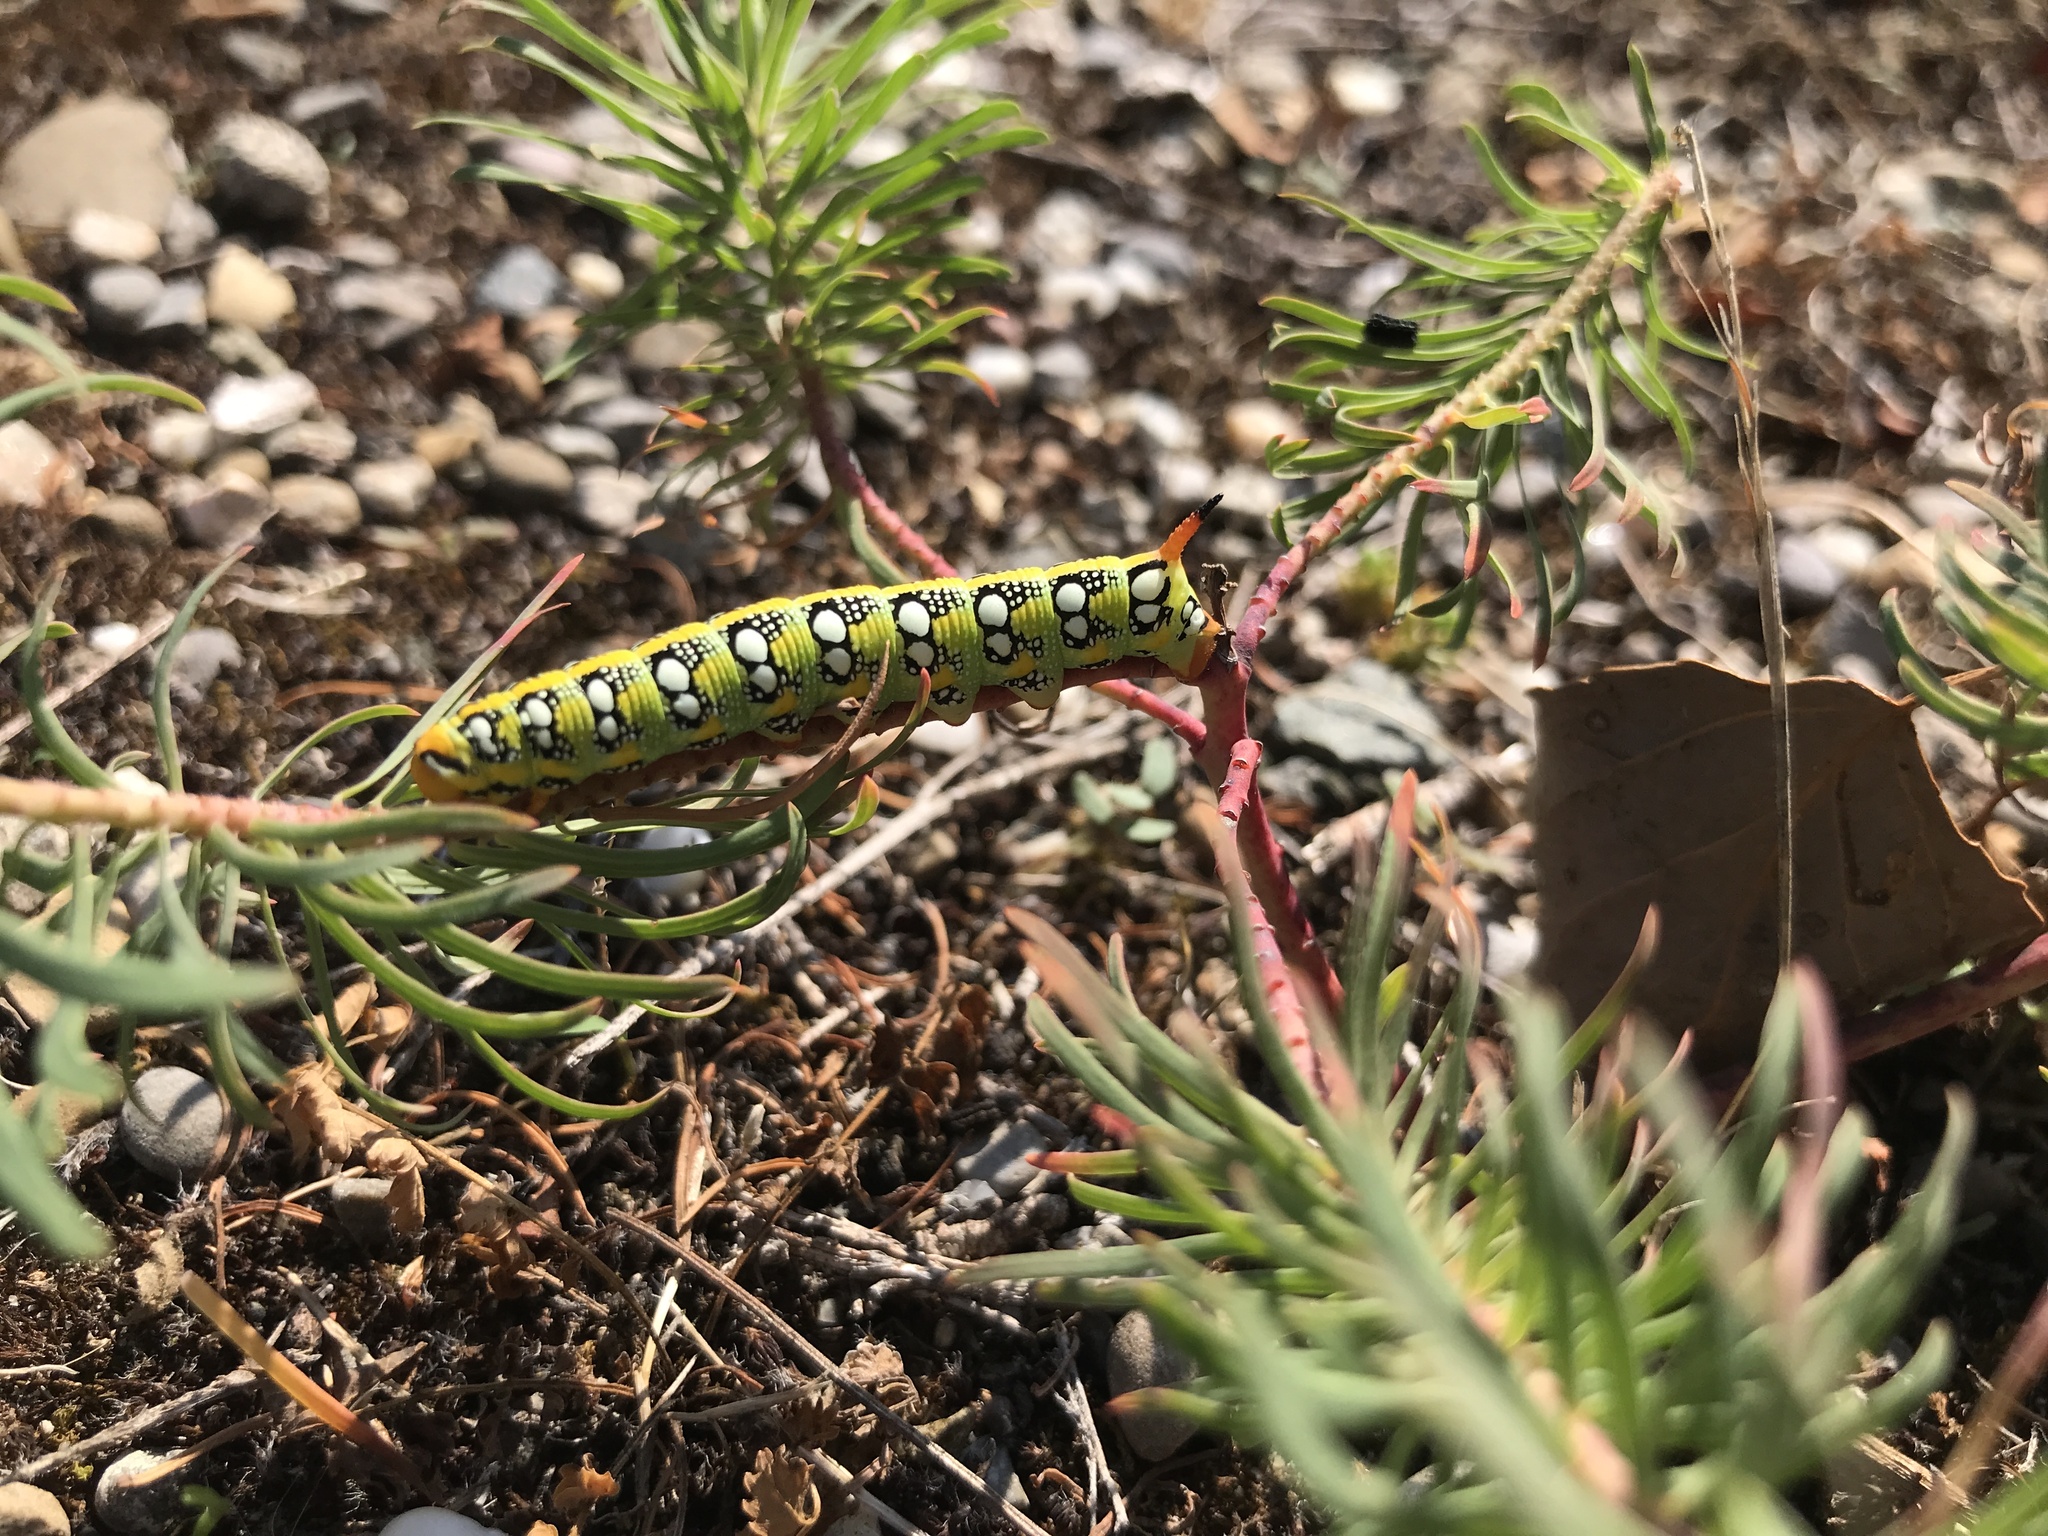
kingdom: Animalia
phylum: Arthropoda
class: Insecta
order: Lepidoptera
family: Sphingidae
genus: Hyles
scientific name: Hyles euphorbiae
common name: Spurge hawk-moth
